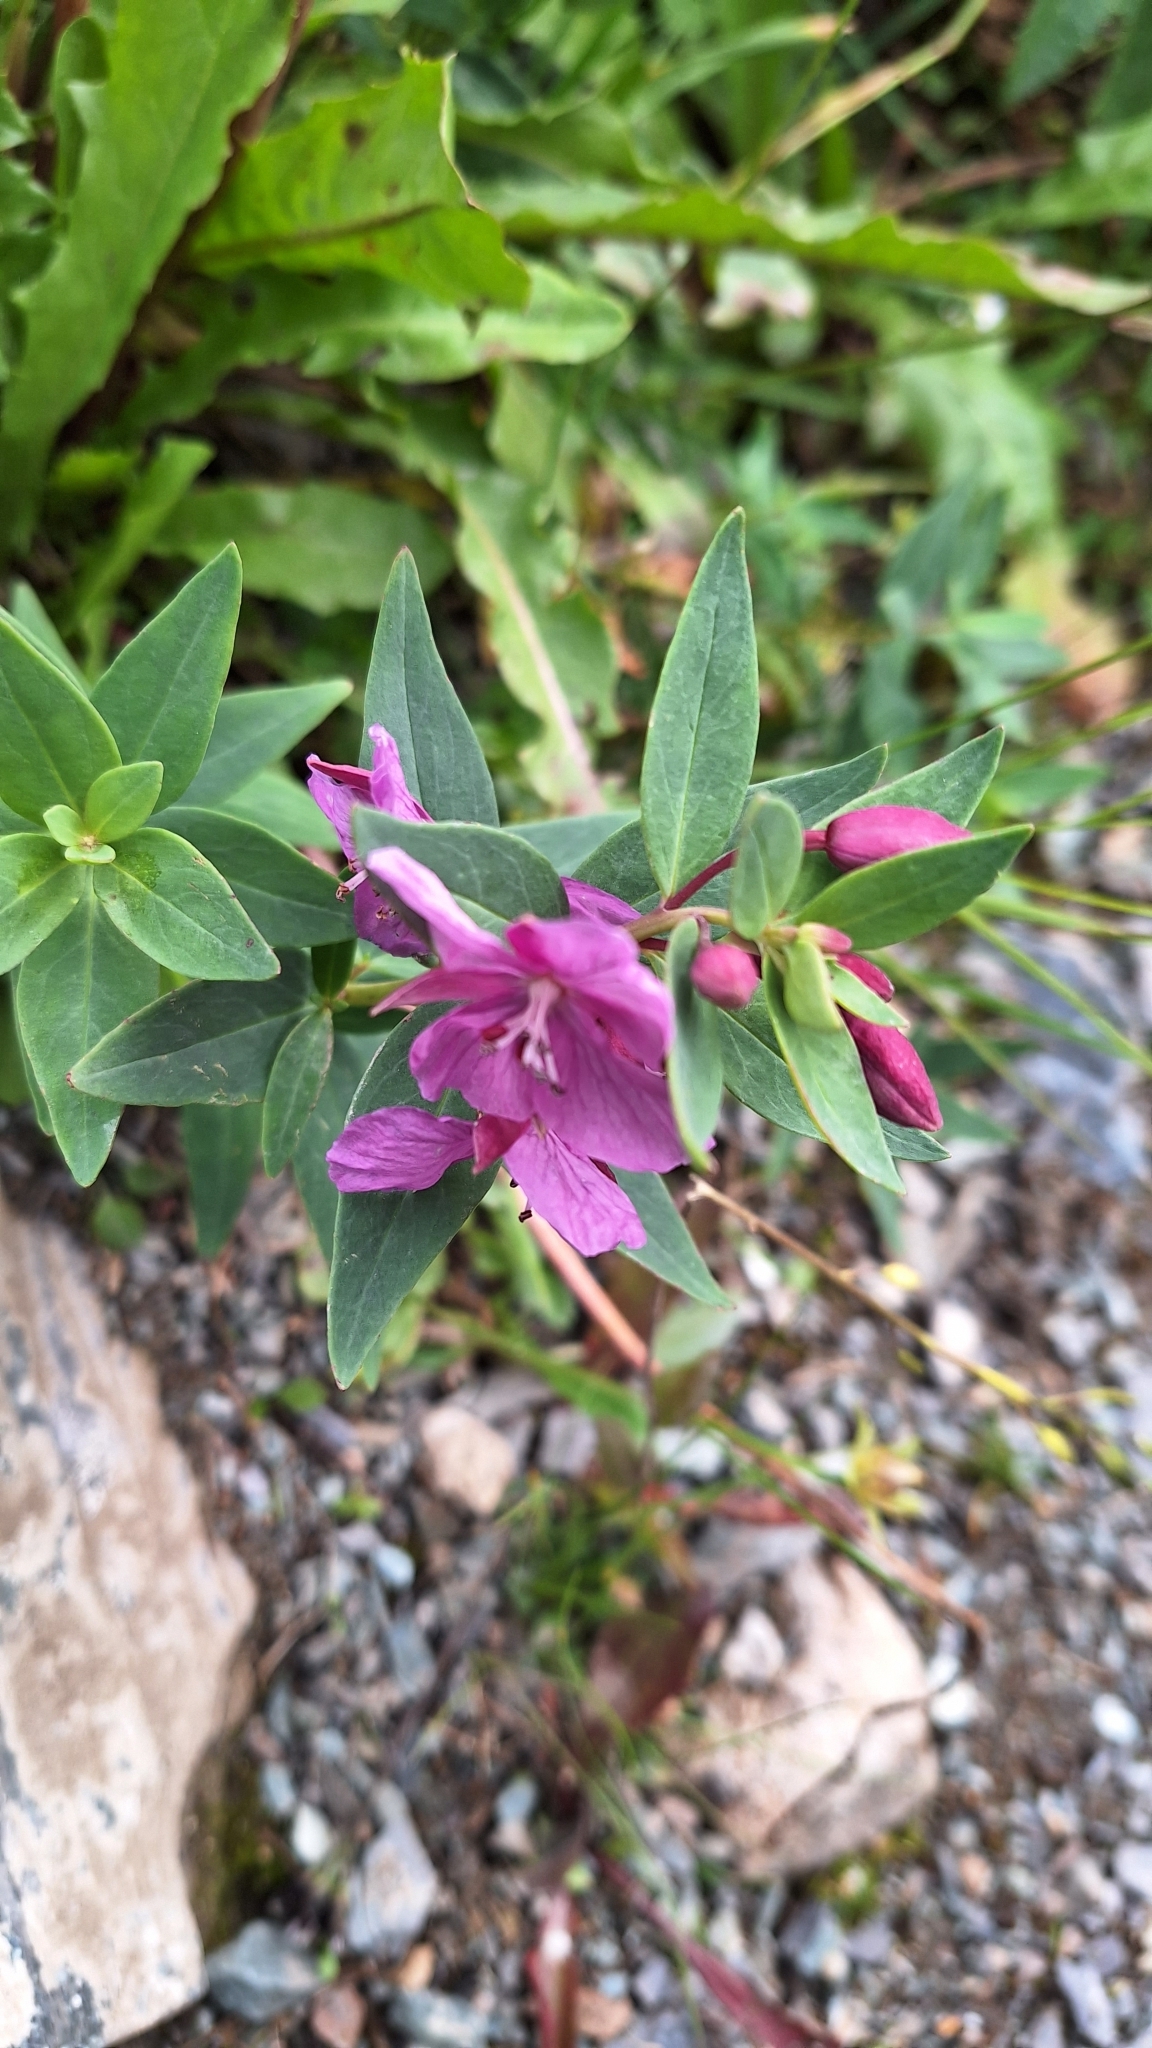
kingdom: Plantae
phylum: Tracheophyta
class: Magnoliopsida
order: Myrtales
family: Onagraceae
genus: Chamaenerion
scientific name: Chamaenerion latifolium
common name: Dwarf fireweed
